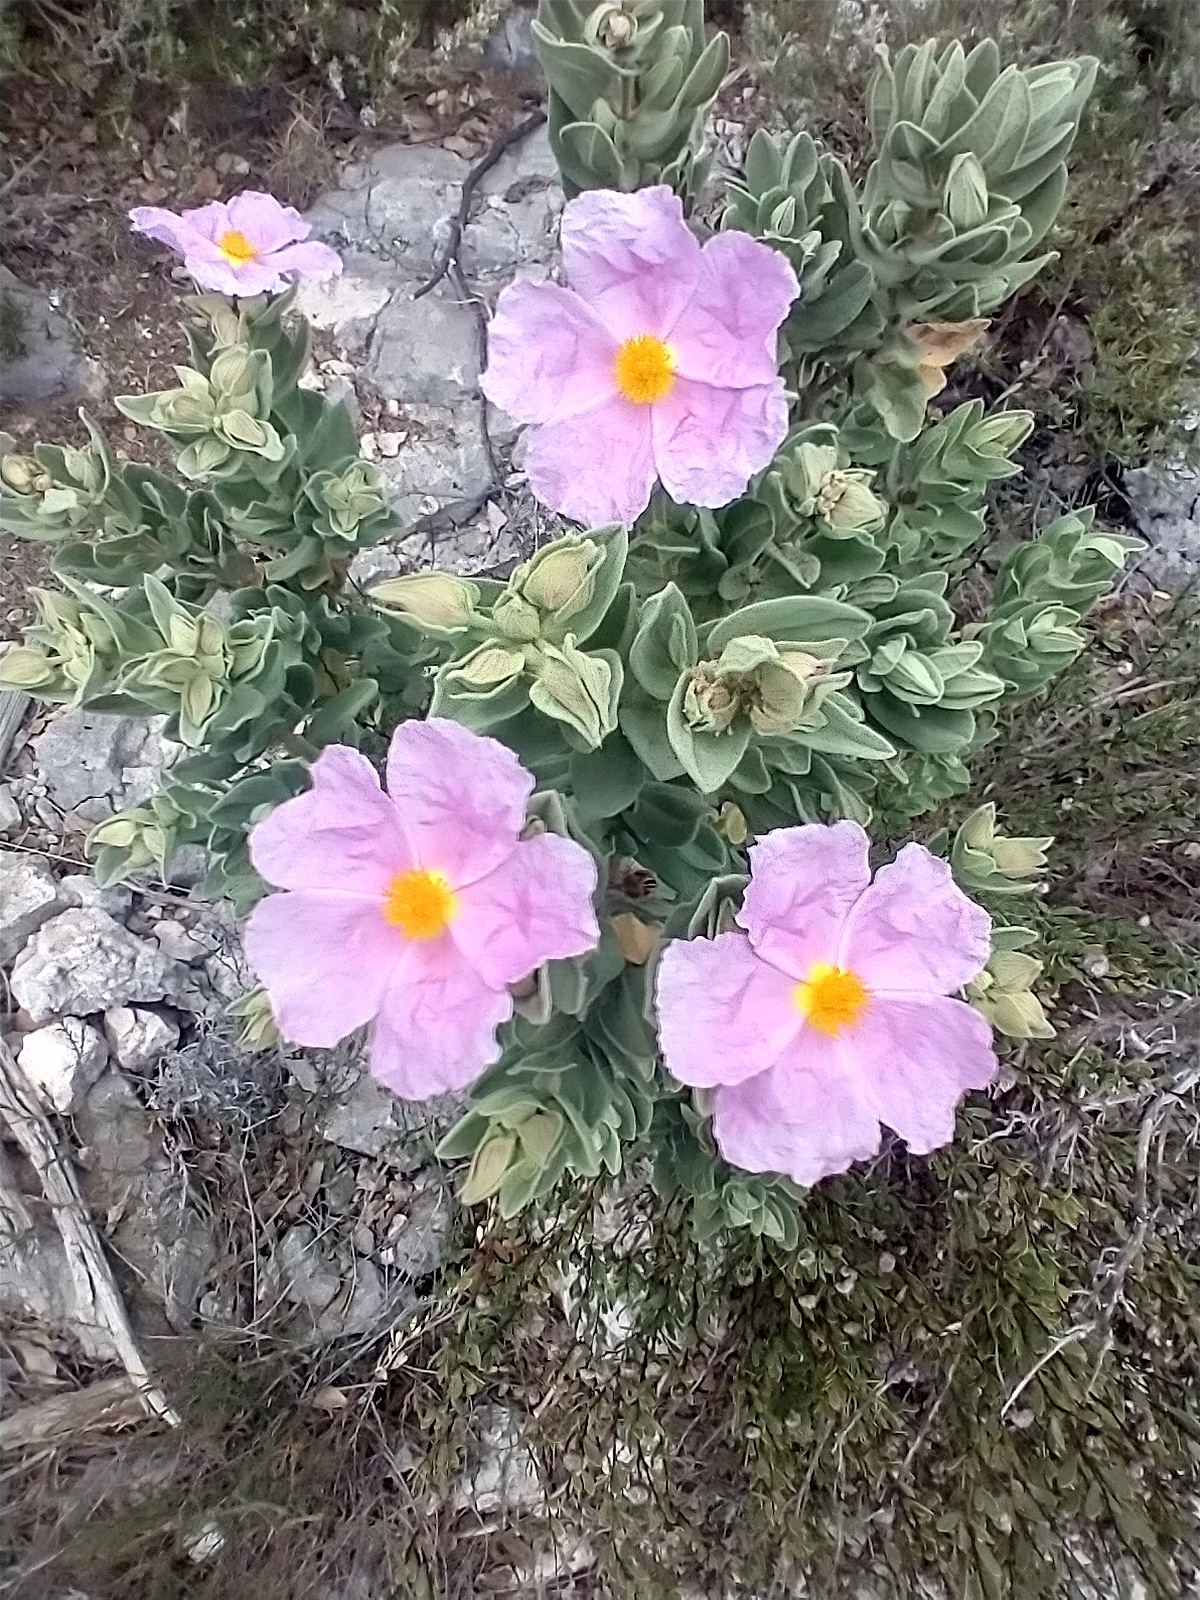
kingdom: Plantae
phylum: Tracheophyta
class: Magnoliopsida
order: Malvales
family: Cistaceae
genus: Cistus
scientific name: Cistus albidus
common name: White-leaf rock-rose
